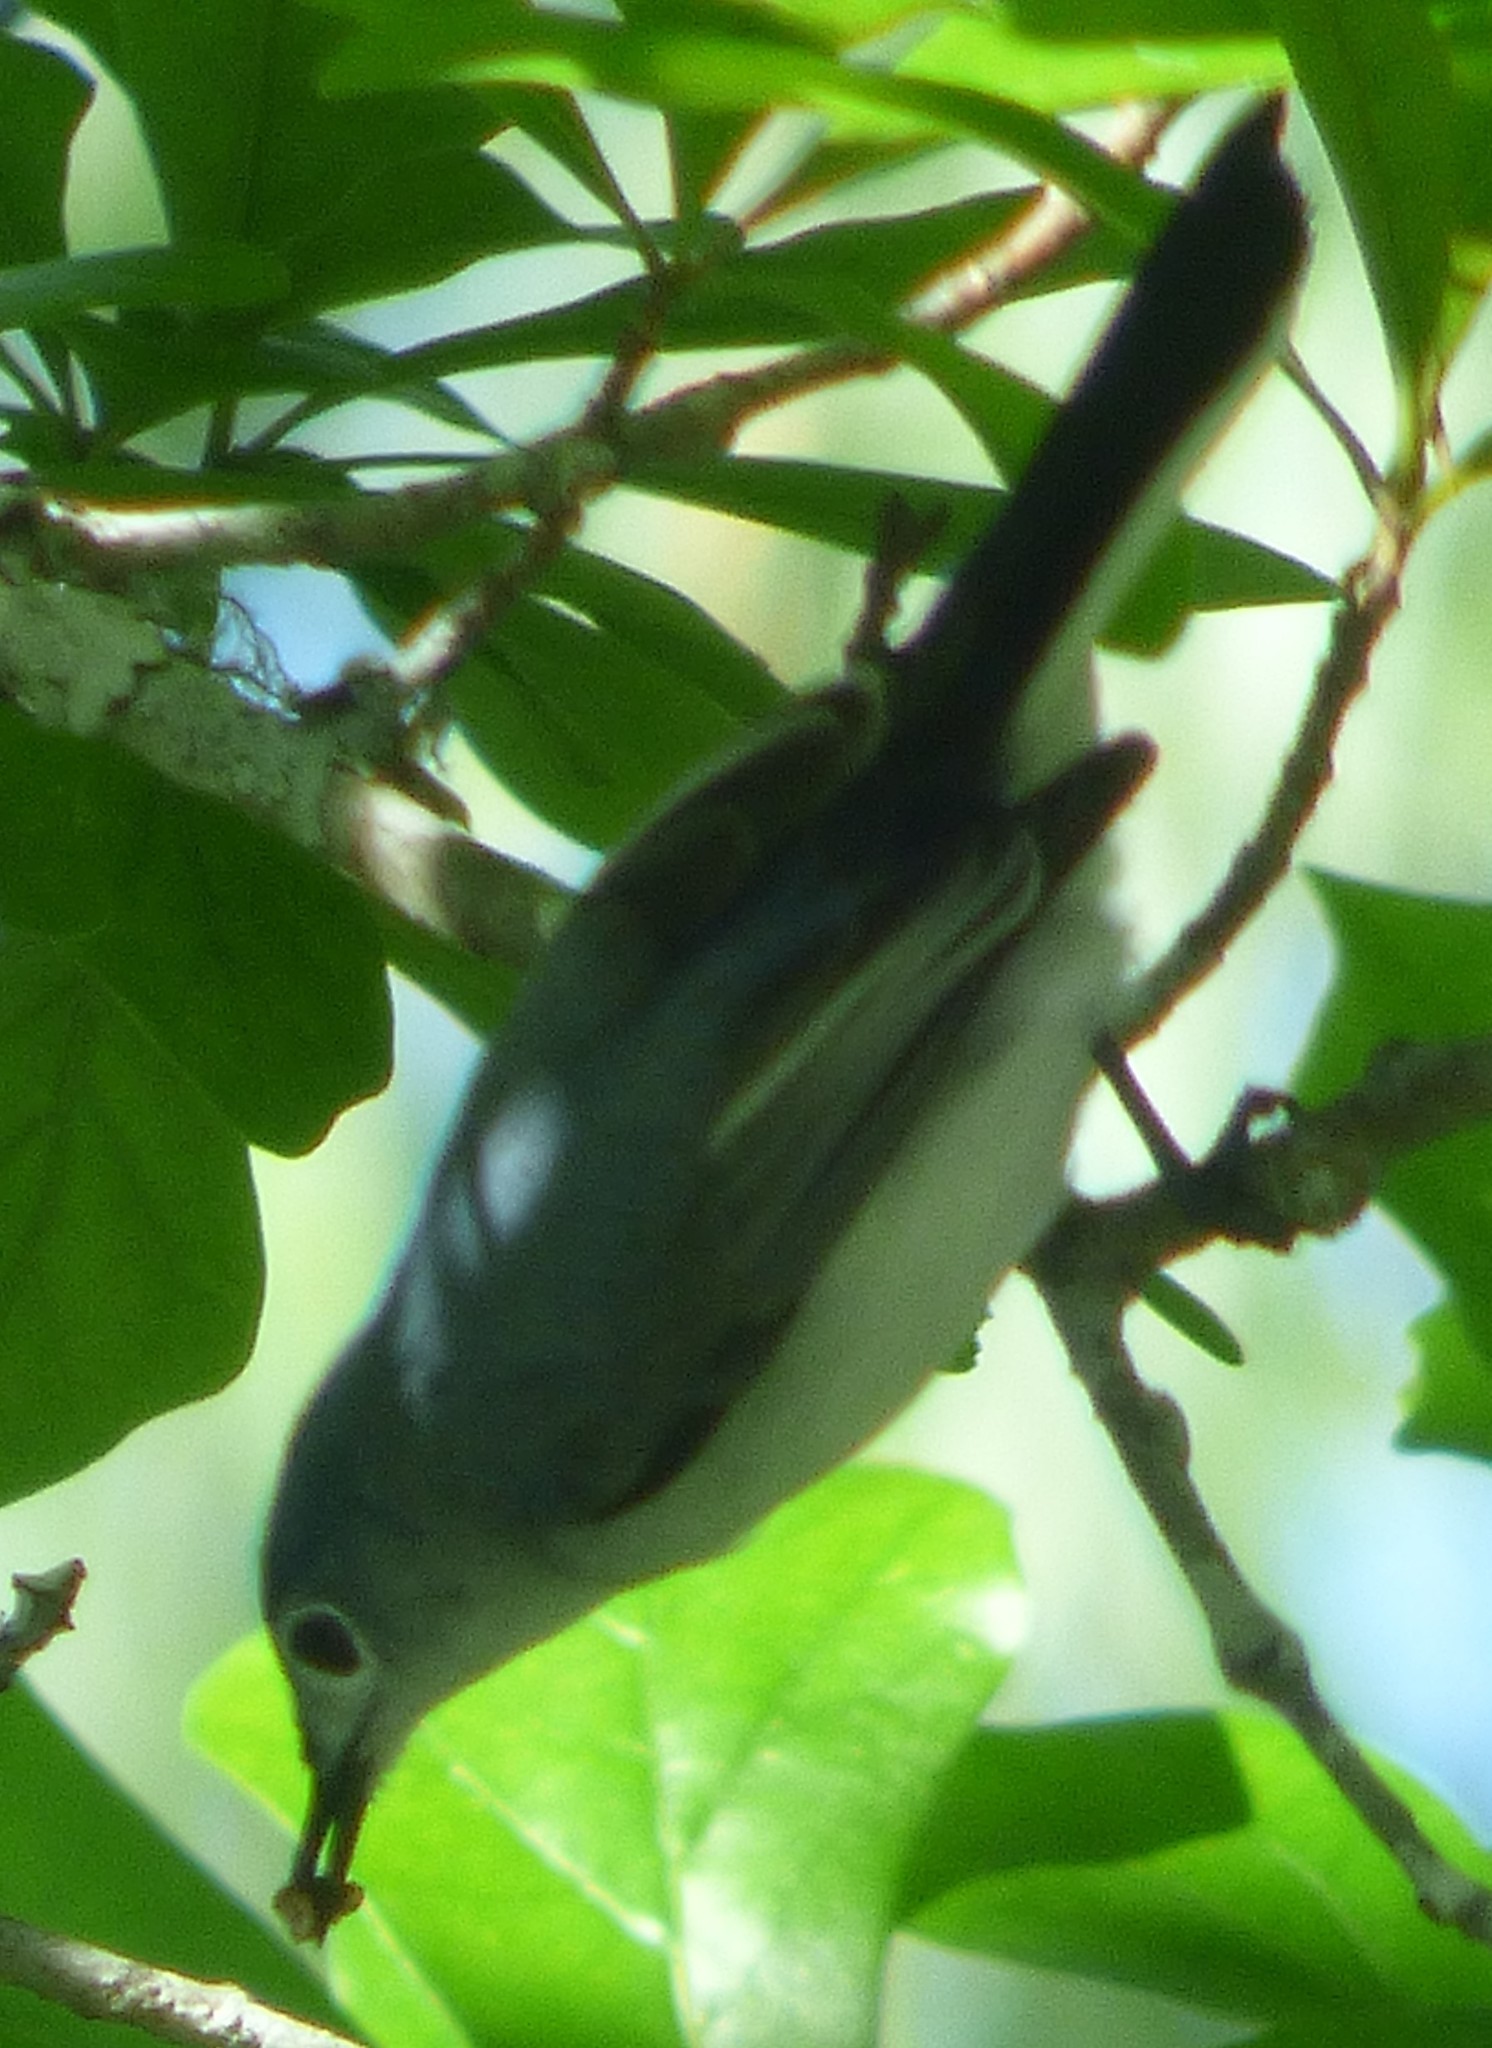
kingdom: Animalia
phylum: Chordata
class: Aves
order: Passeriformes
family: Polioptilidae
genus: Polioptila
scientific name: Polioptila caerulea
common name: Blue-gray gnatcatcher
